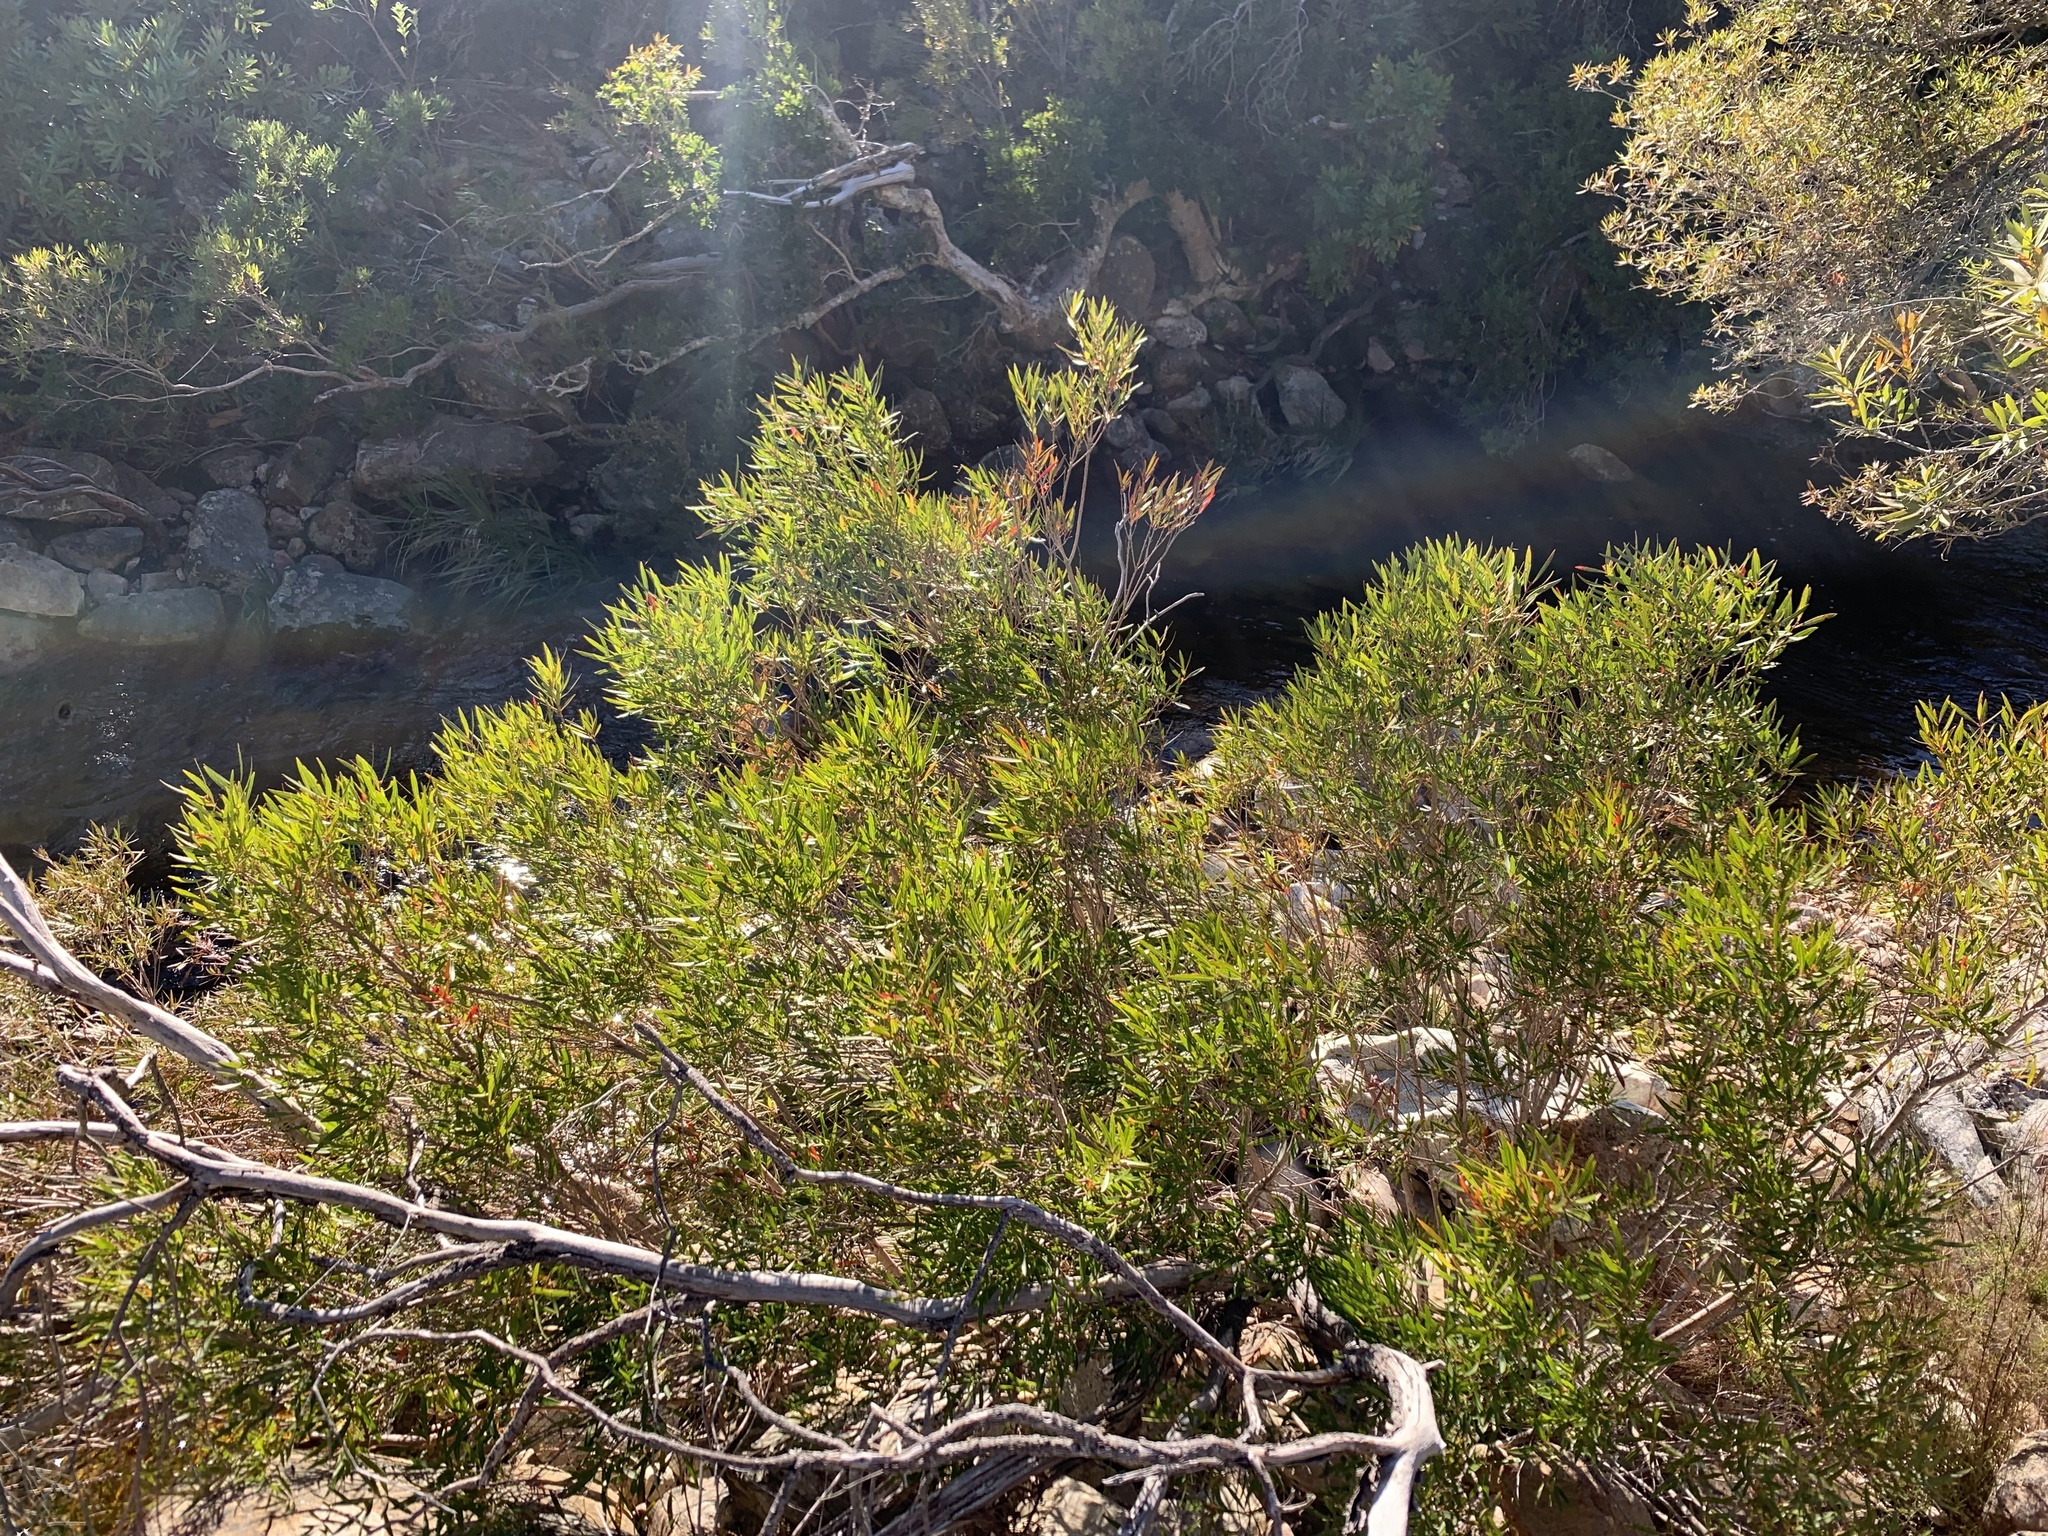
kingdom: Plantae
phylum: Tracheophyta
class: Magnoliopsida
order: Myrtales
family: Myrtaceae
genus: Callistemon
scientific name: Callistemon lanceolatus
